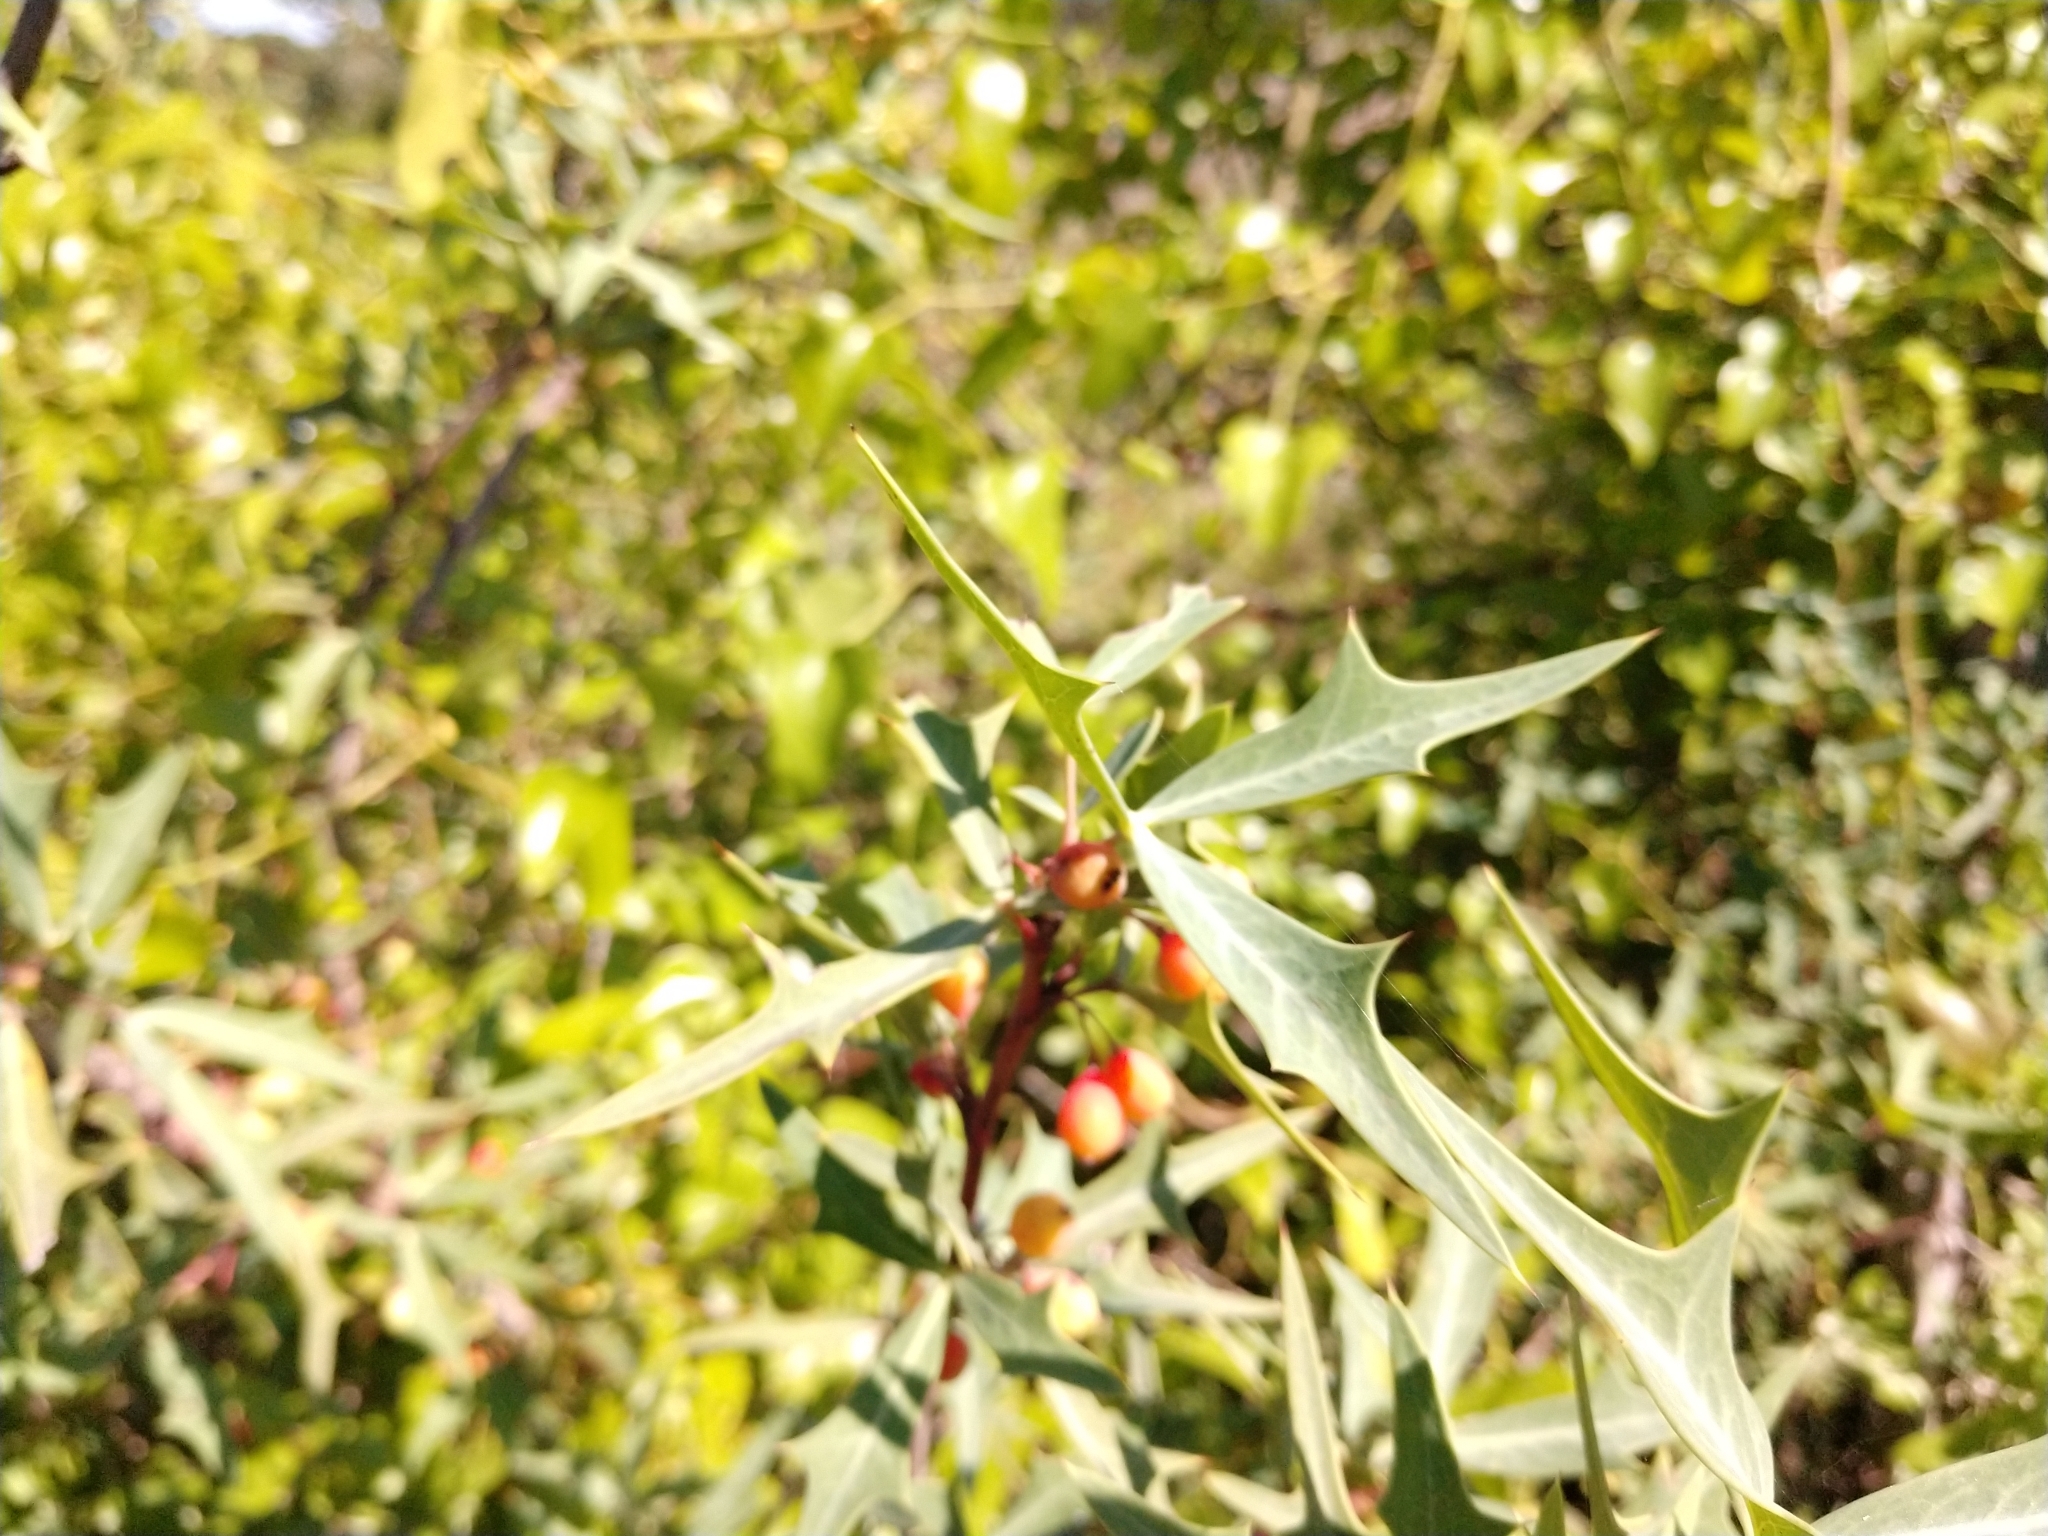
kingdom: Plantae
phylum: Tracheophyta
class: Magnoliopsida
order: Ranunculales
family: Berberidaceae
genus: Alloberberis
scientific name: Alloberberis trifoliolata
